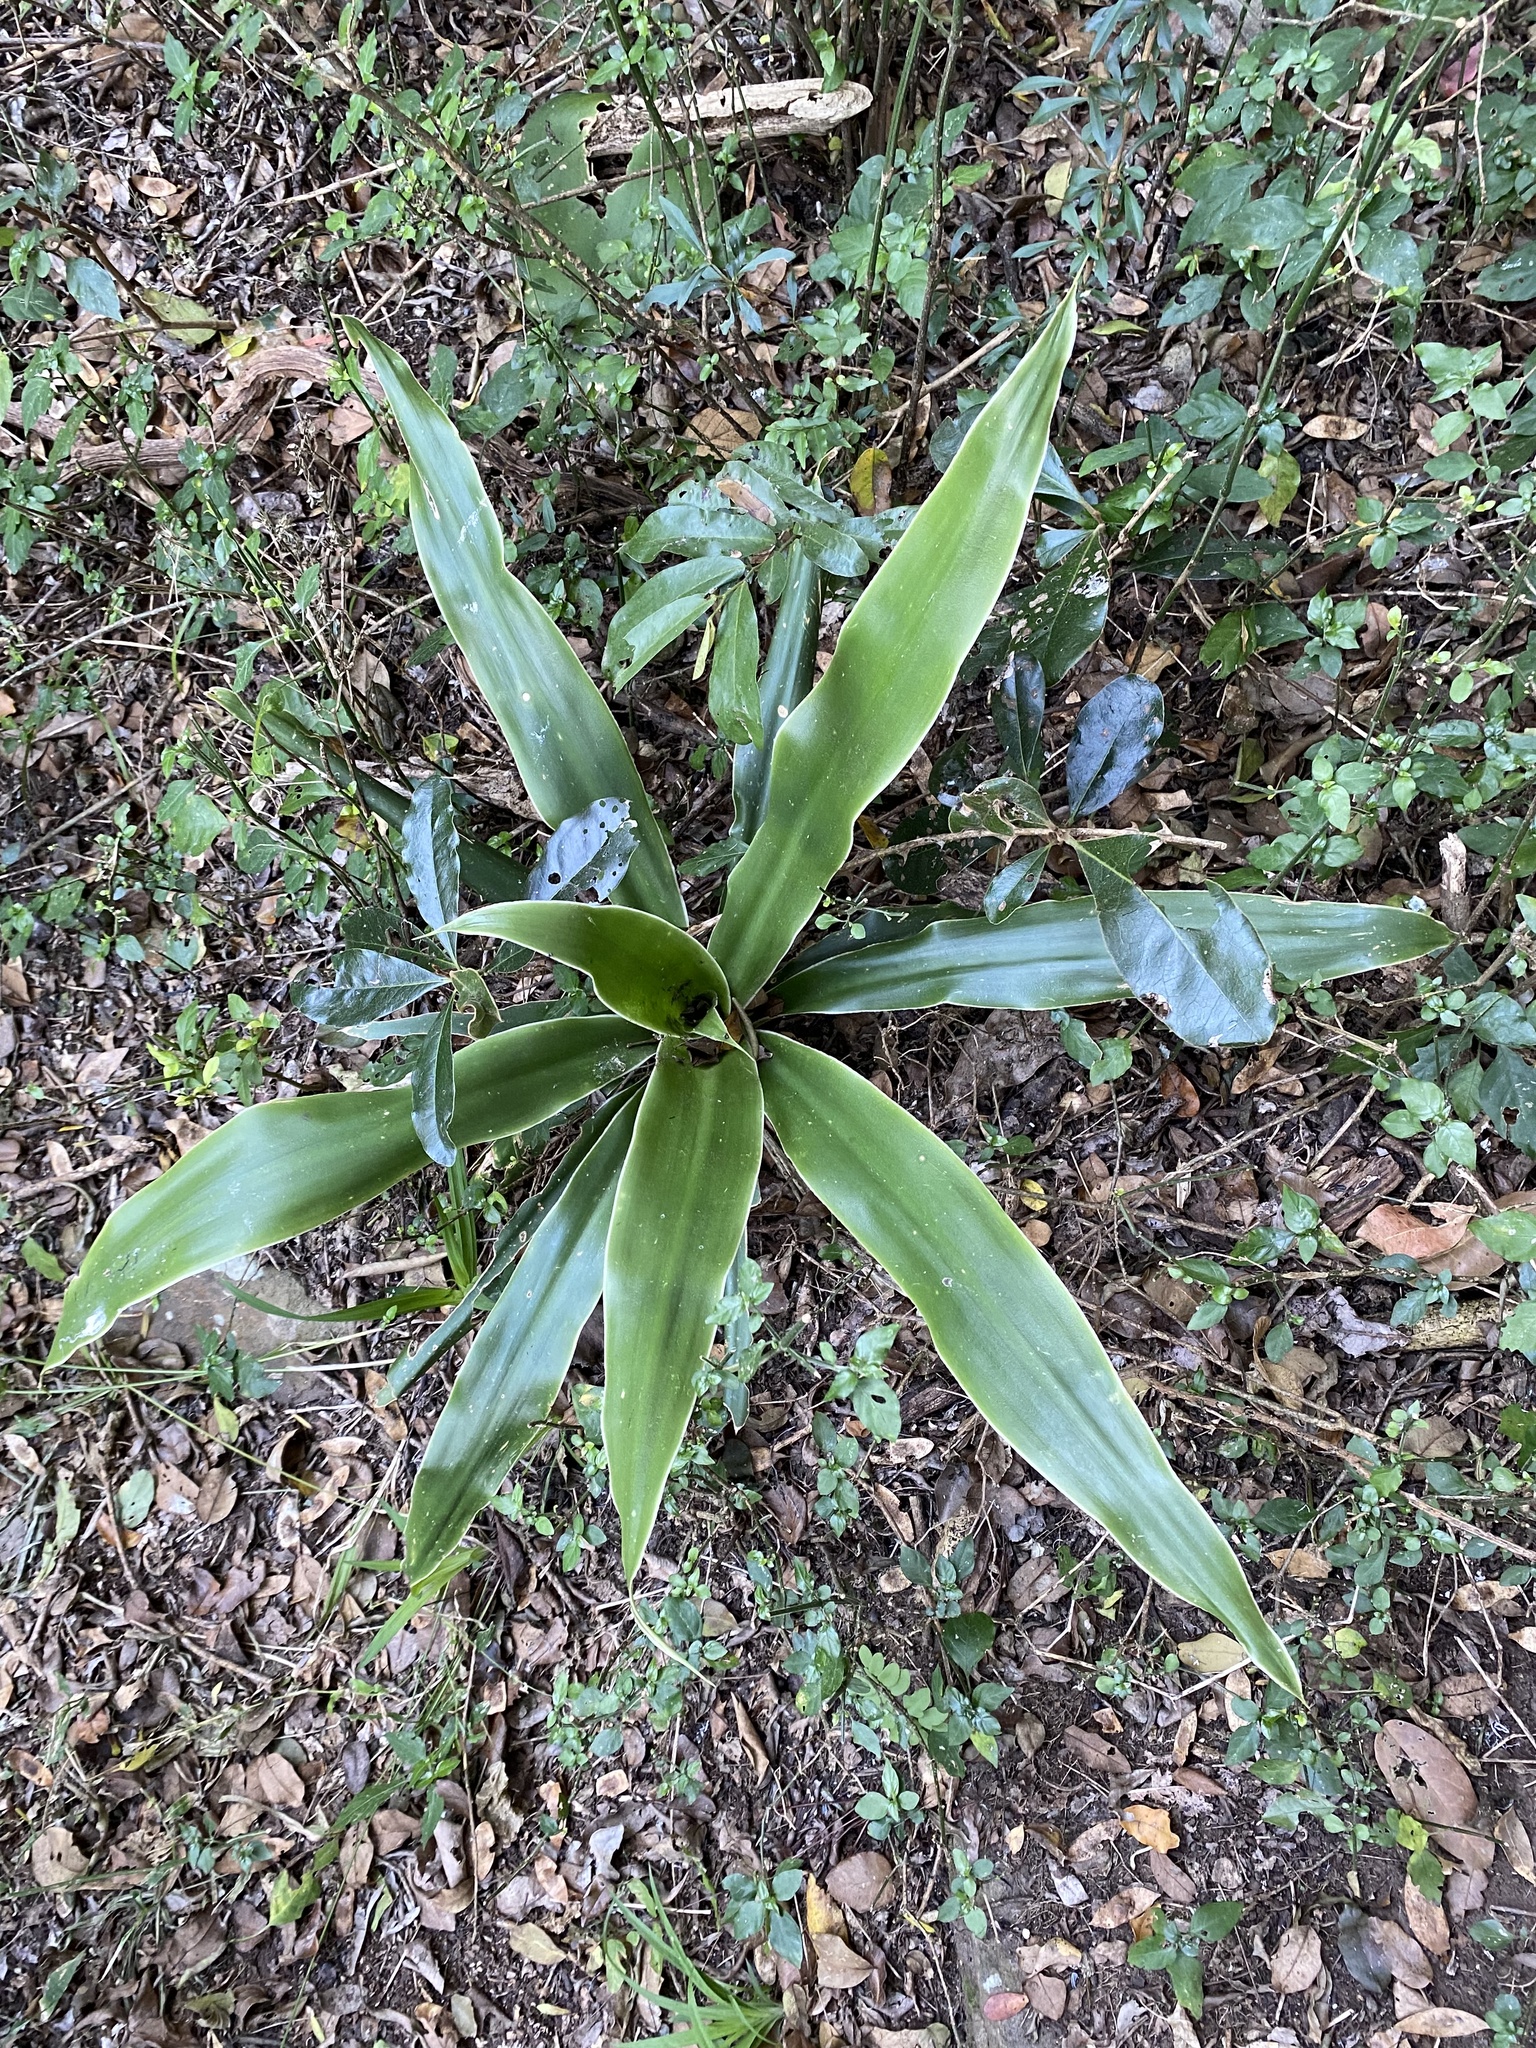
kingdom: Plantae
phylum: Tracheophyta
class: Liliopsida
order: Asparagales
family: Asparagaceae
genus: Dracaena
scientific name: Dracaena aletriformis
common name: Large-leaved dragon tree
